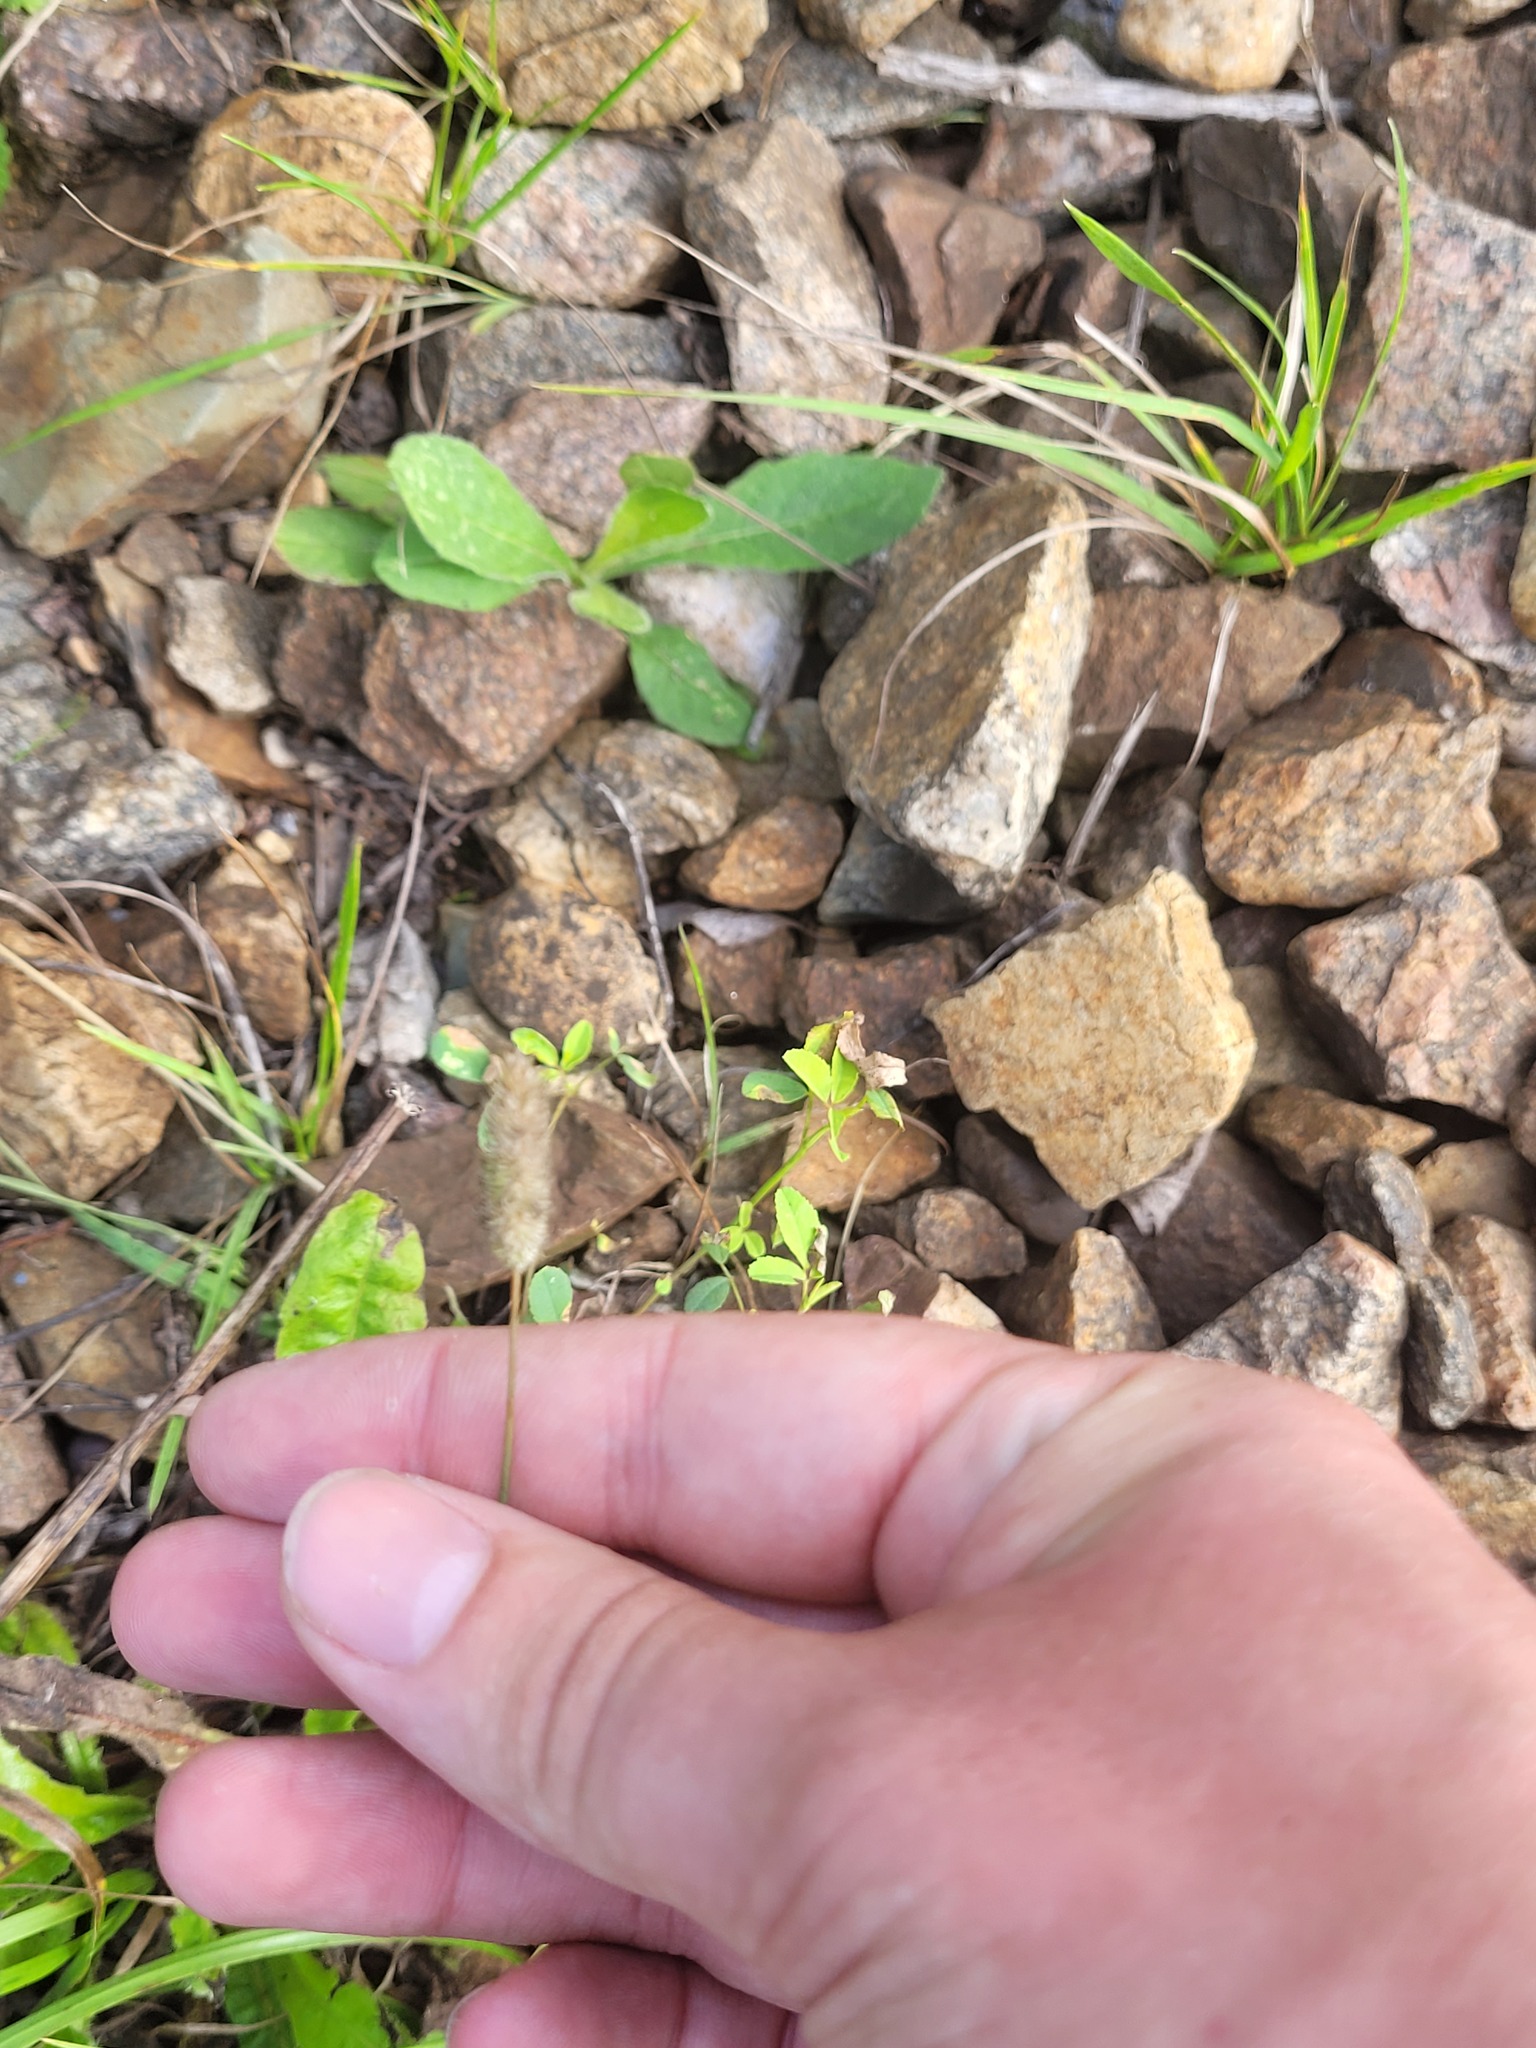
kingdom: Plantae
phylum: Tracheophyta
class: Liliopsida
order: Poales
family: Poaceae
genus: Phleum
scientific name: Phleum pratense
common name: Timothy grass
